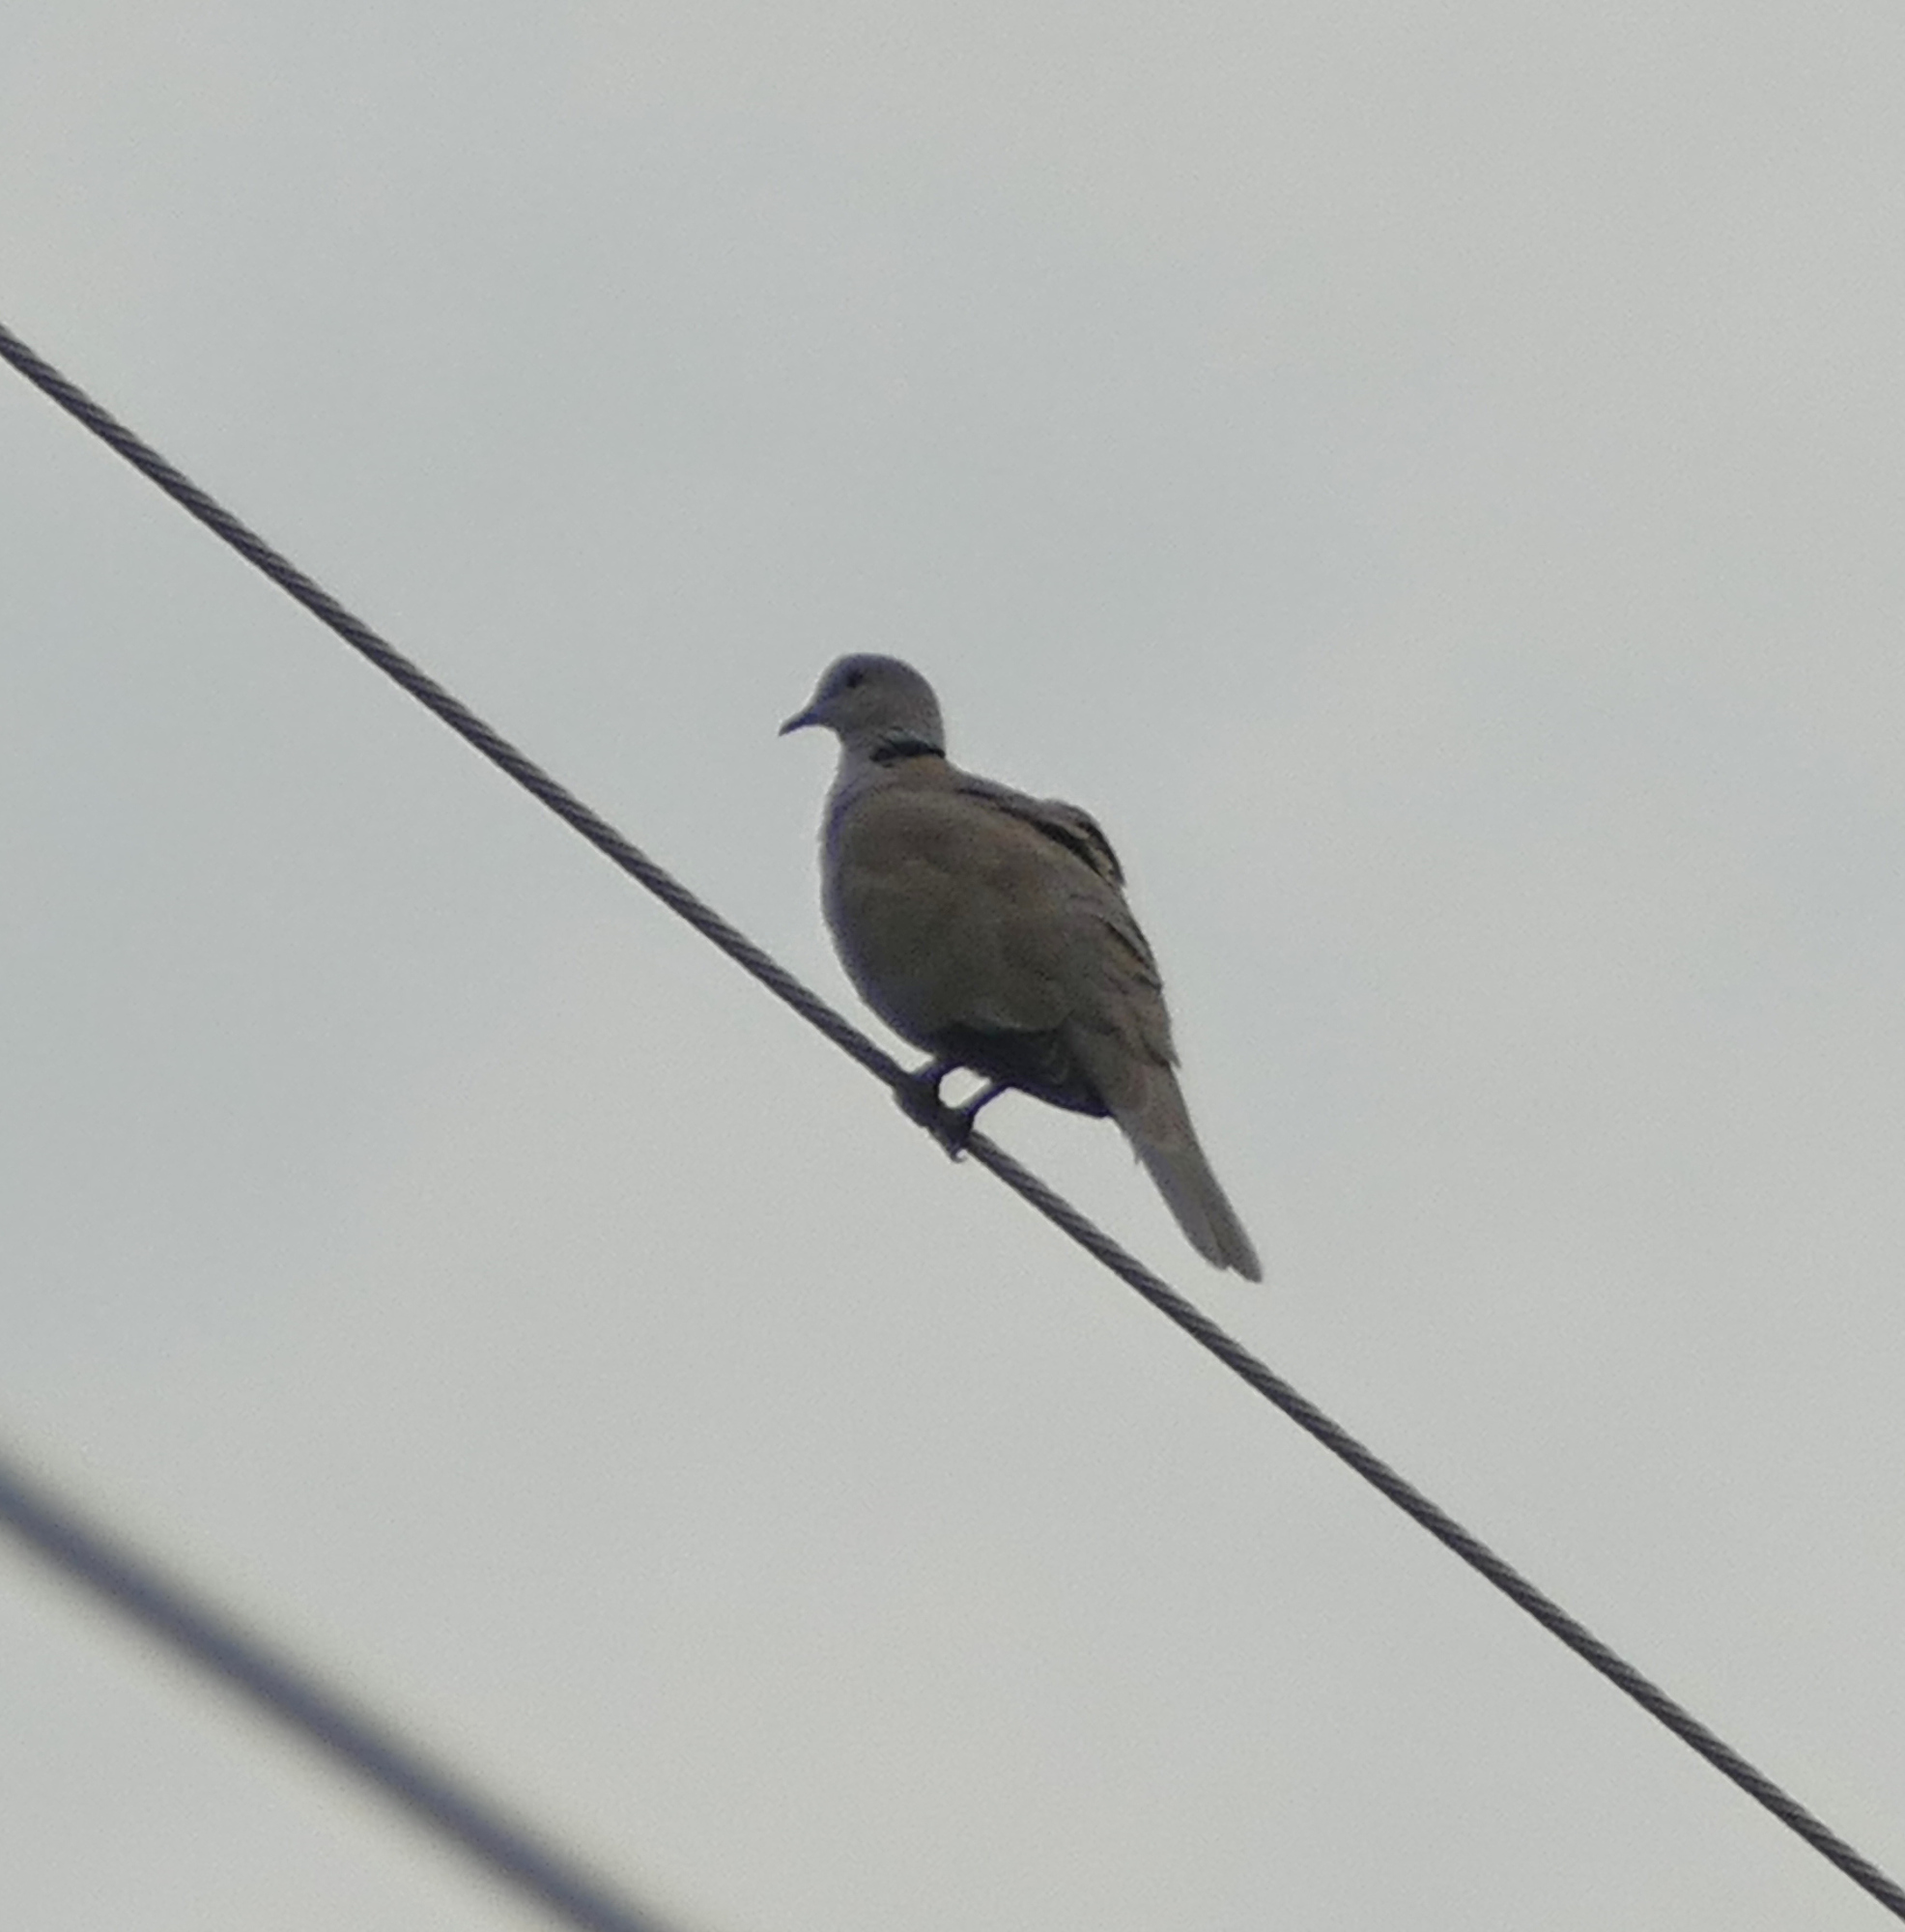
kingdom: Animalia
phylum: Chordata
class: Aves
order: Columbiformes
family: Columbidae
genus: Streptopelia
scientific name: Streptopelia decaocto
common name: Eurasian collared dove
